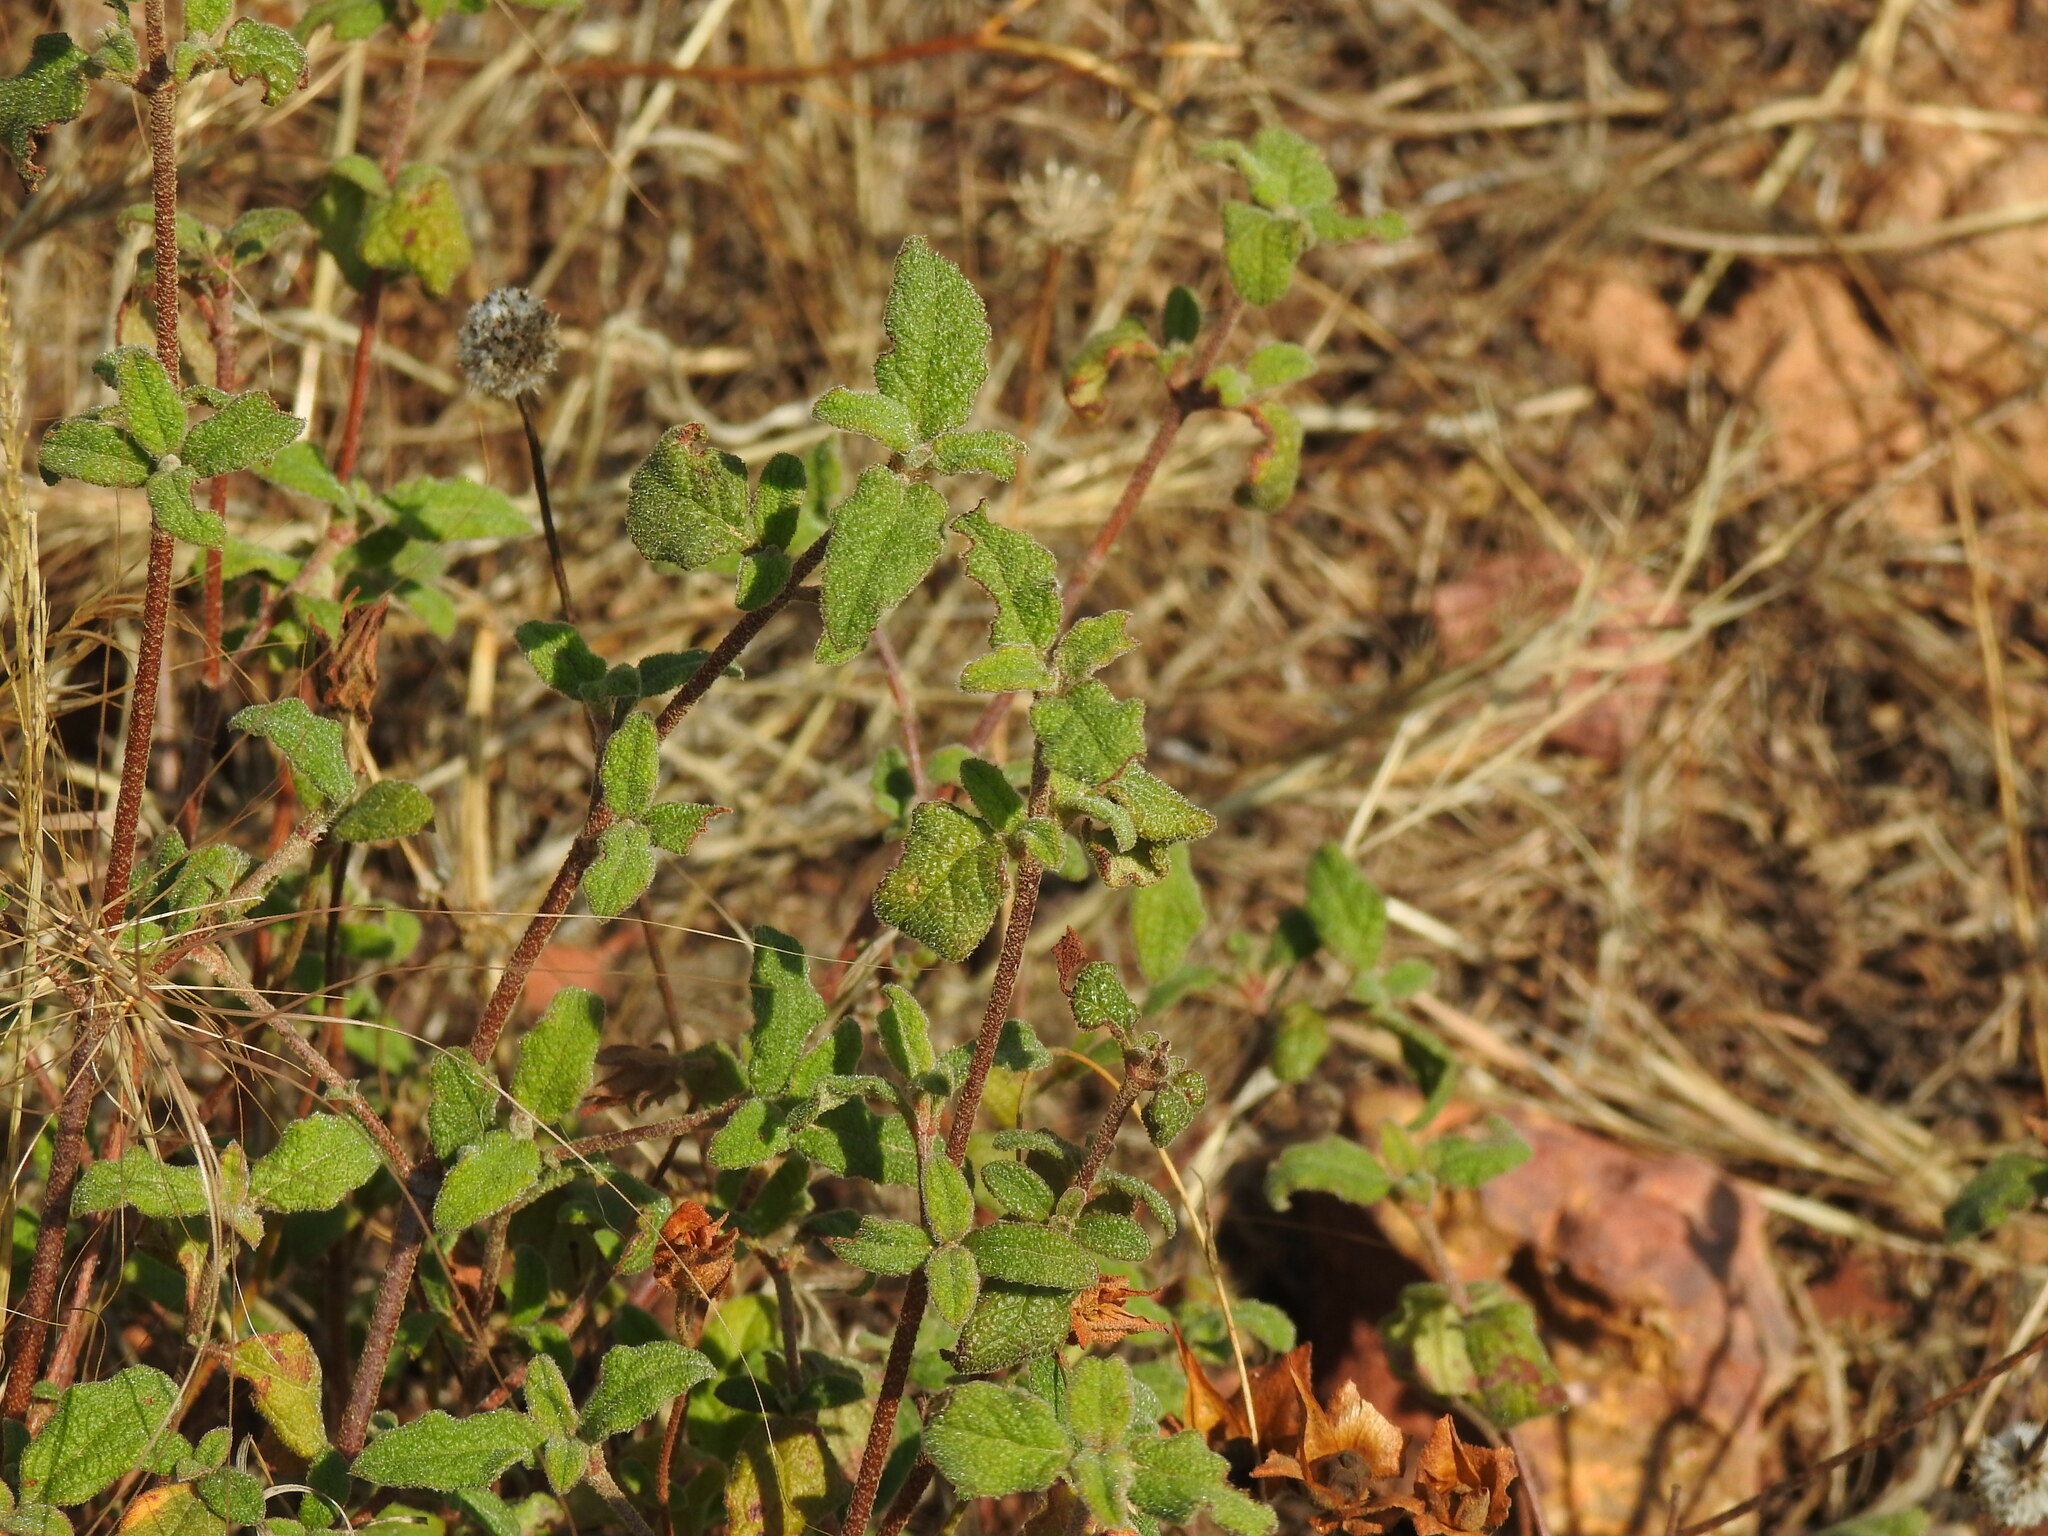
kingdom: Plantae
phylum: Tracheophyta
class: Magnoliopsida
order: Malvales
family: Cistaceae
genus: Cistus
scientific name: Cistus salviifolius
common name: Salvia cistus
